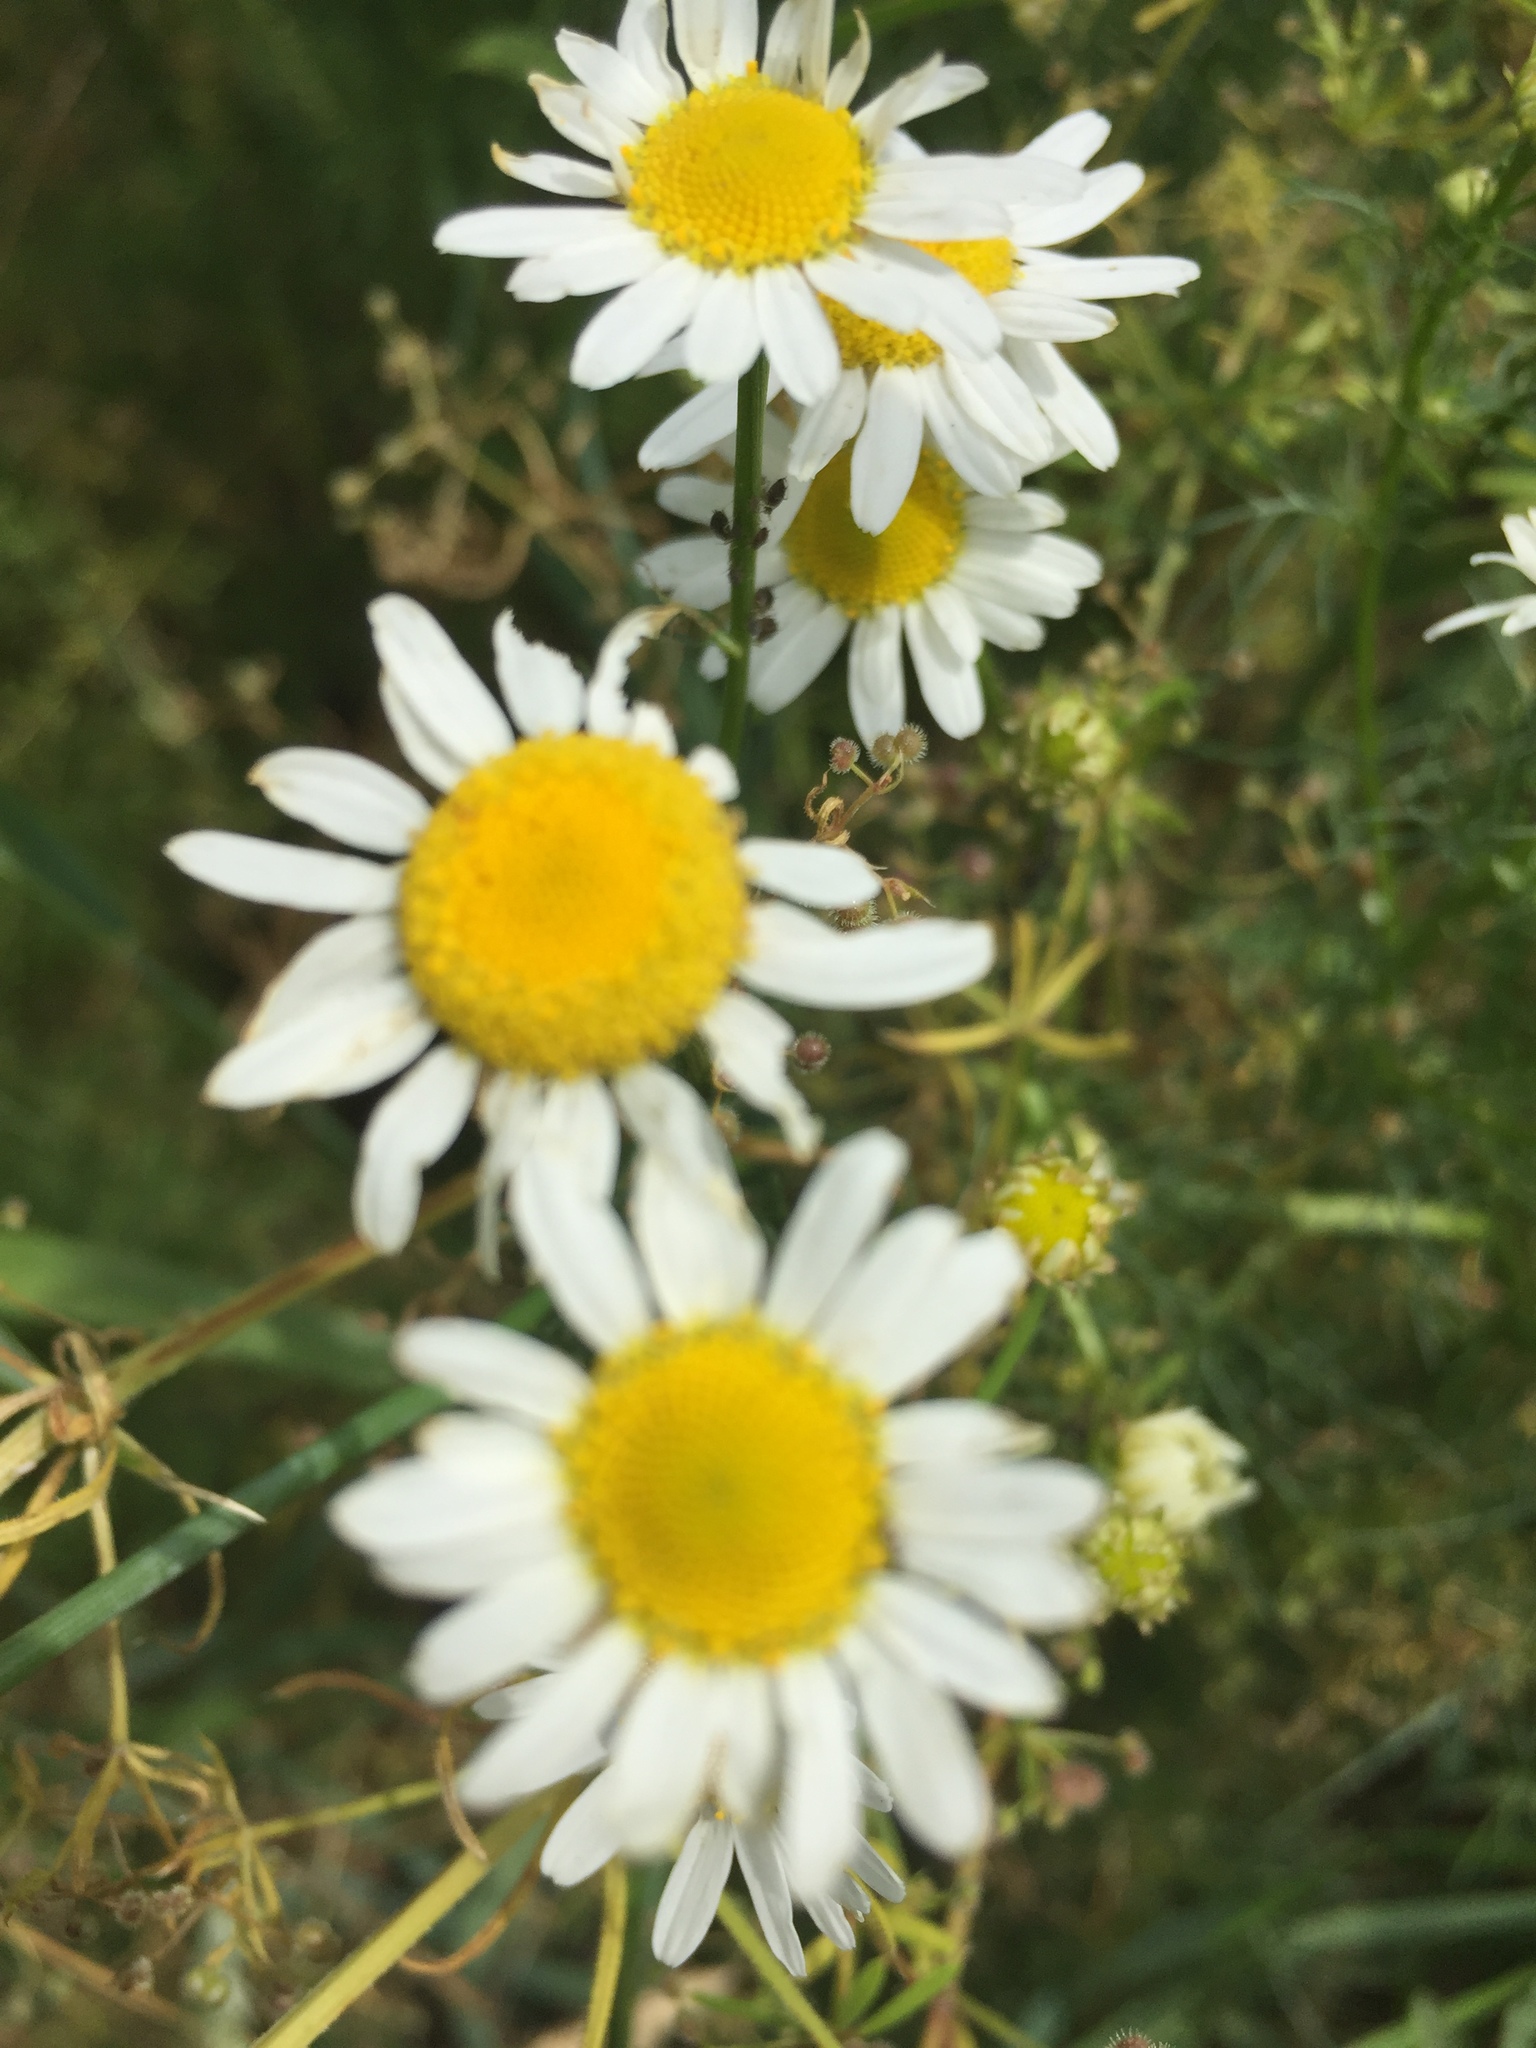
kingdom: Plantae
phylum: Tracheophyta
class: Magnoliopsida
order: Asterales
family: Asteraceae
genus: Tripleurospermum
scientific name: Tripleurospermum inodorum
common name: Scentless mayweed
